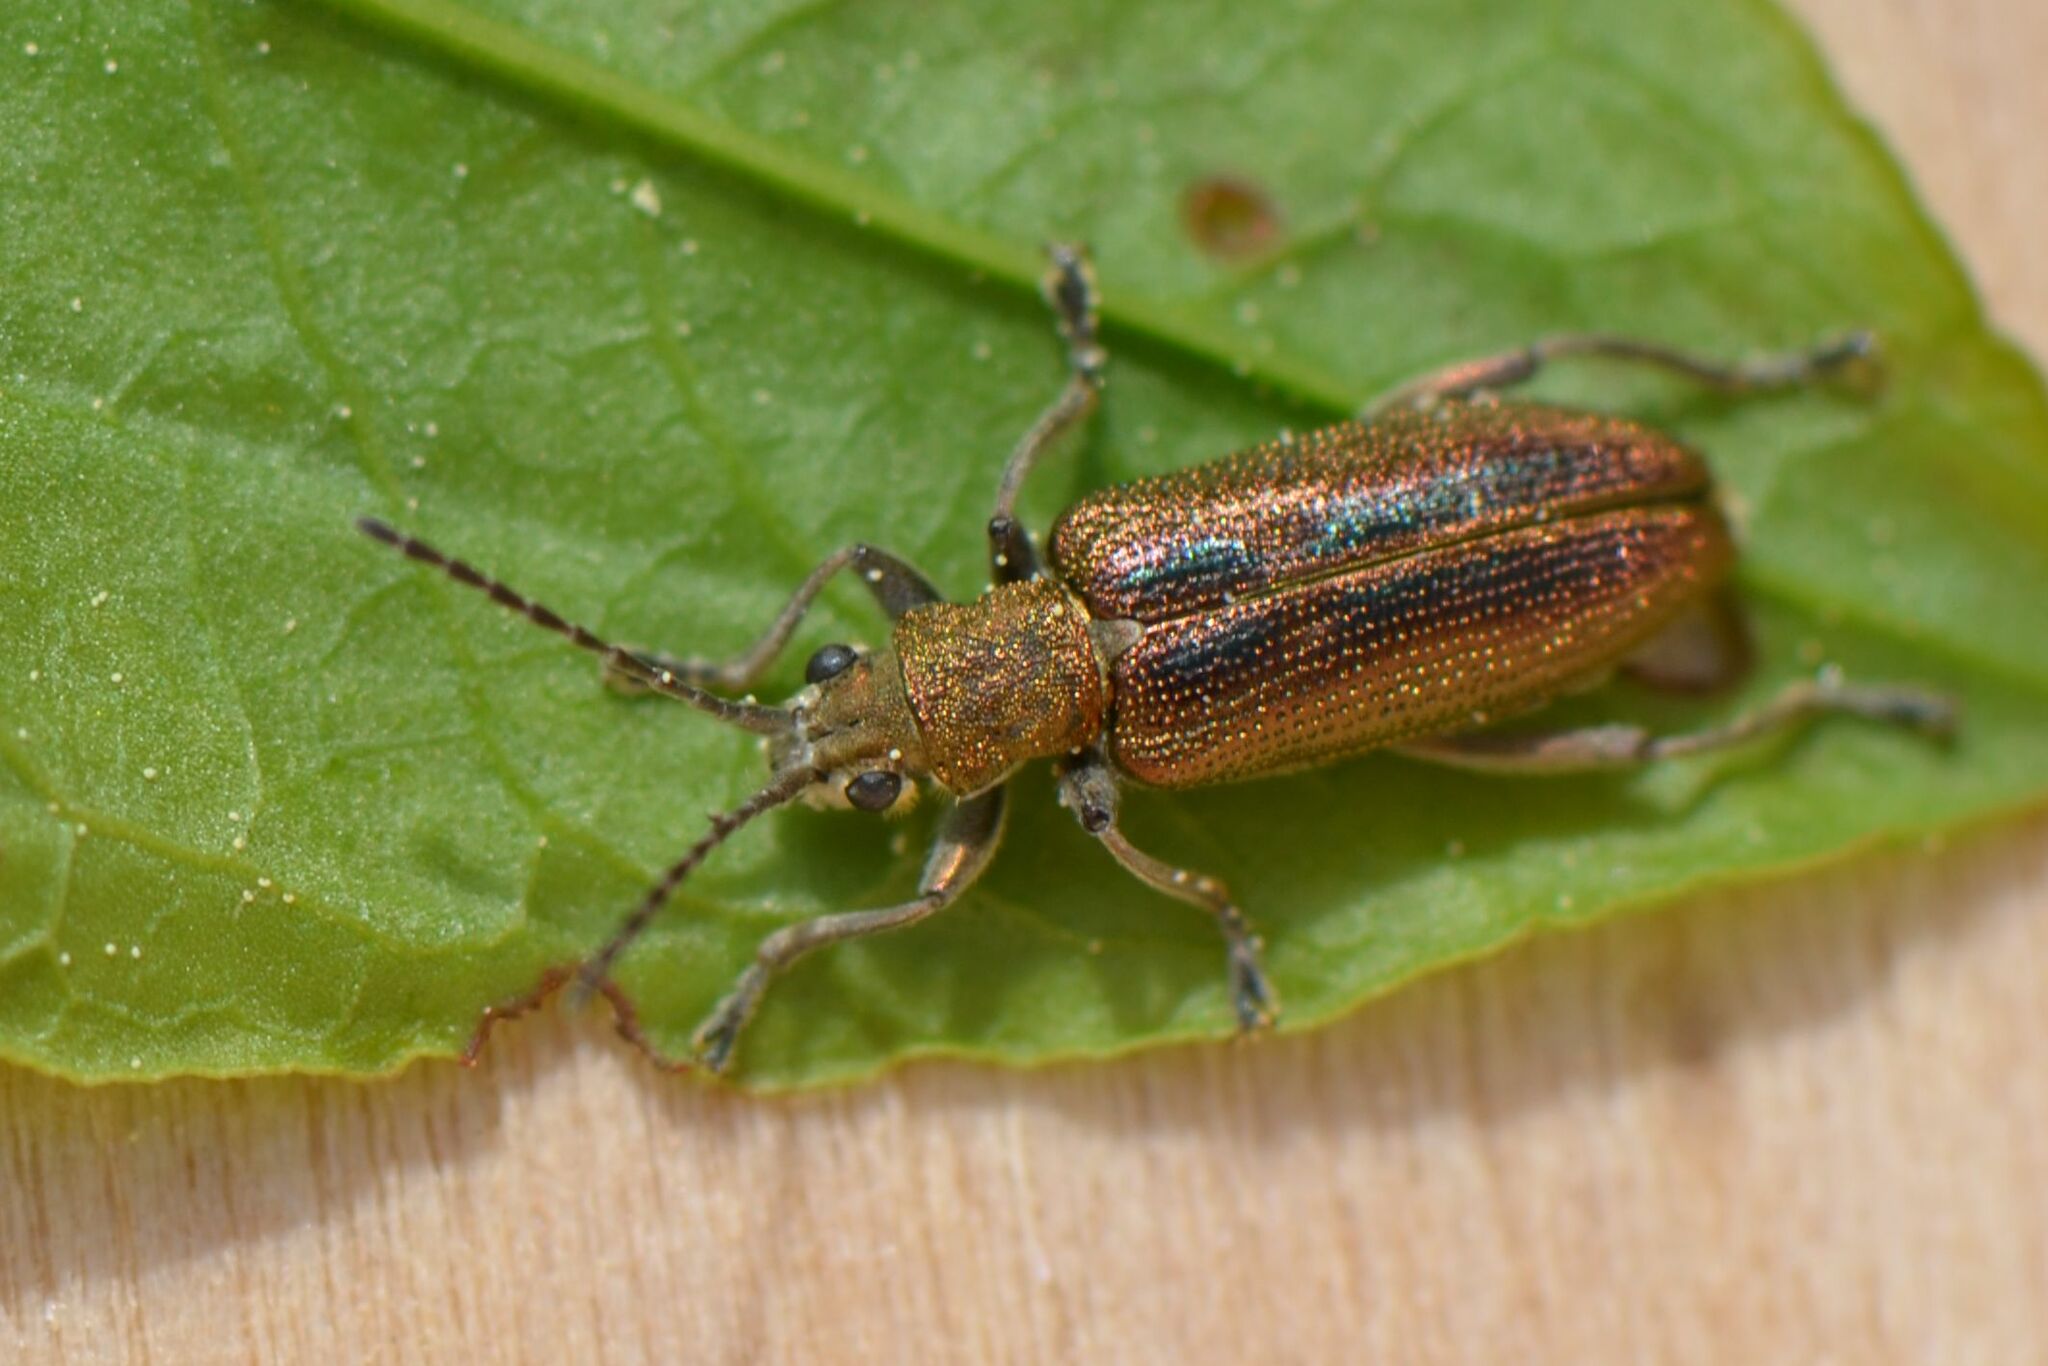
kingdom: Animalia
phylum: Arthropoda
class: Insecta
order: Coleoptera
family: Chrysomelidae
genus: Donacia
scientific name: Donacia vulgaris
